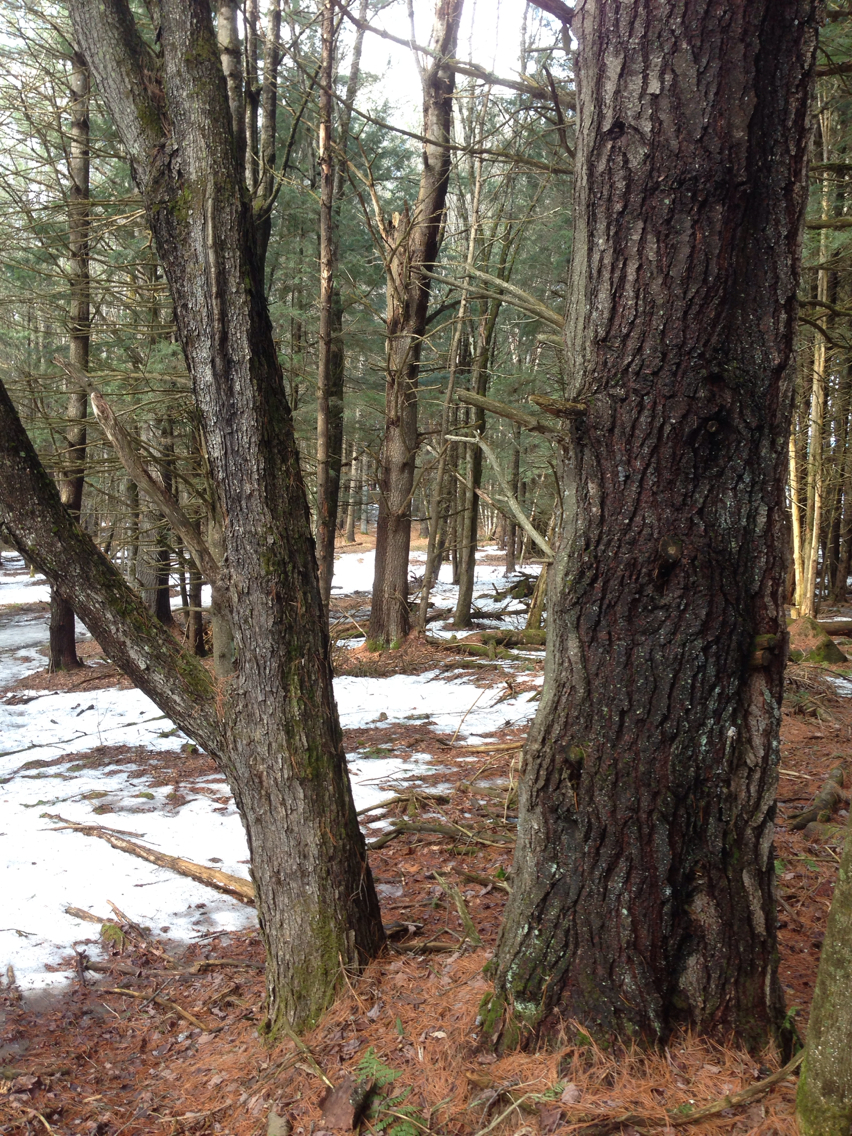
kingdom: Plantae
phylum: Tracheophyta
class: Magnoliopsida
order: Fagales
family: Betulaceae
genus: Ostrya
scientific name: Ostrya virginiana
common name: Ironwood
